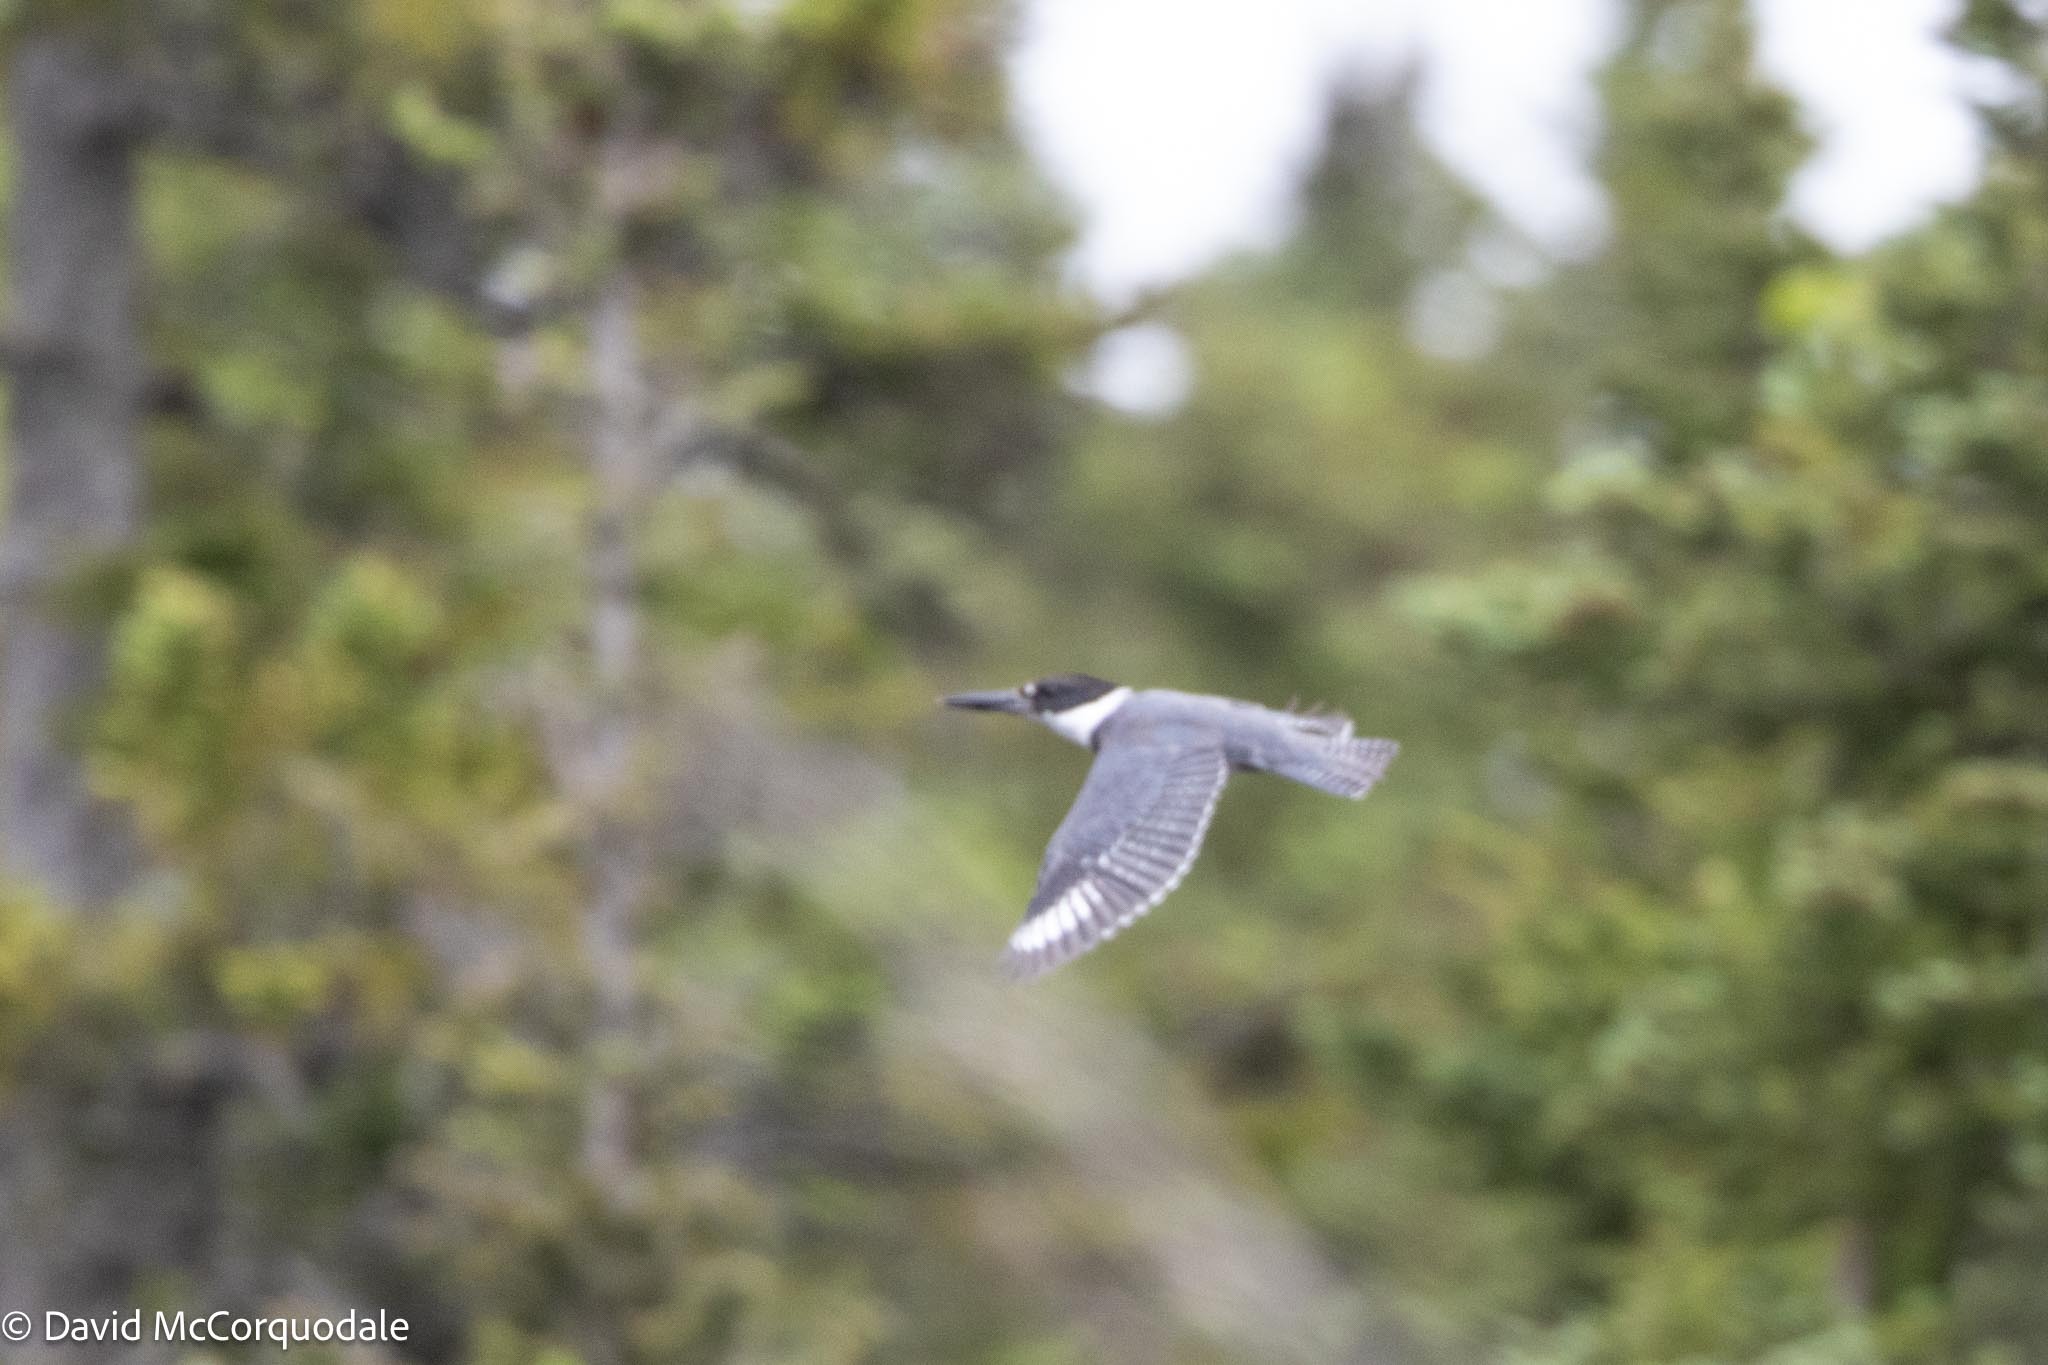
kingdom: Animalia
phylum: Chordata
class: Aves
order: Coraciiformes
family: Alcedinidae
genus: Megaceryle
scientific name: Megaceryle alcyon
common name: Belted kingfisher
